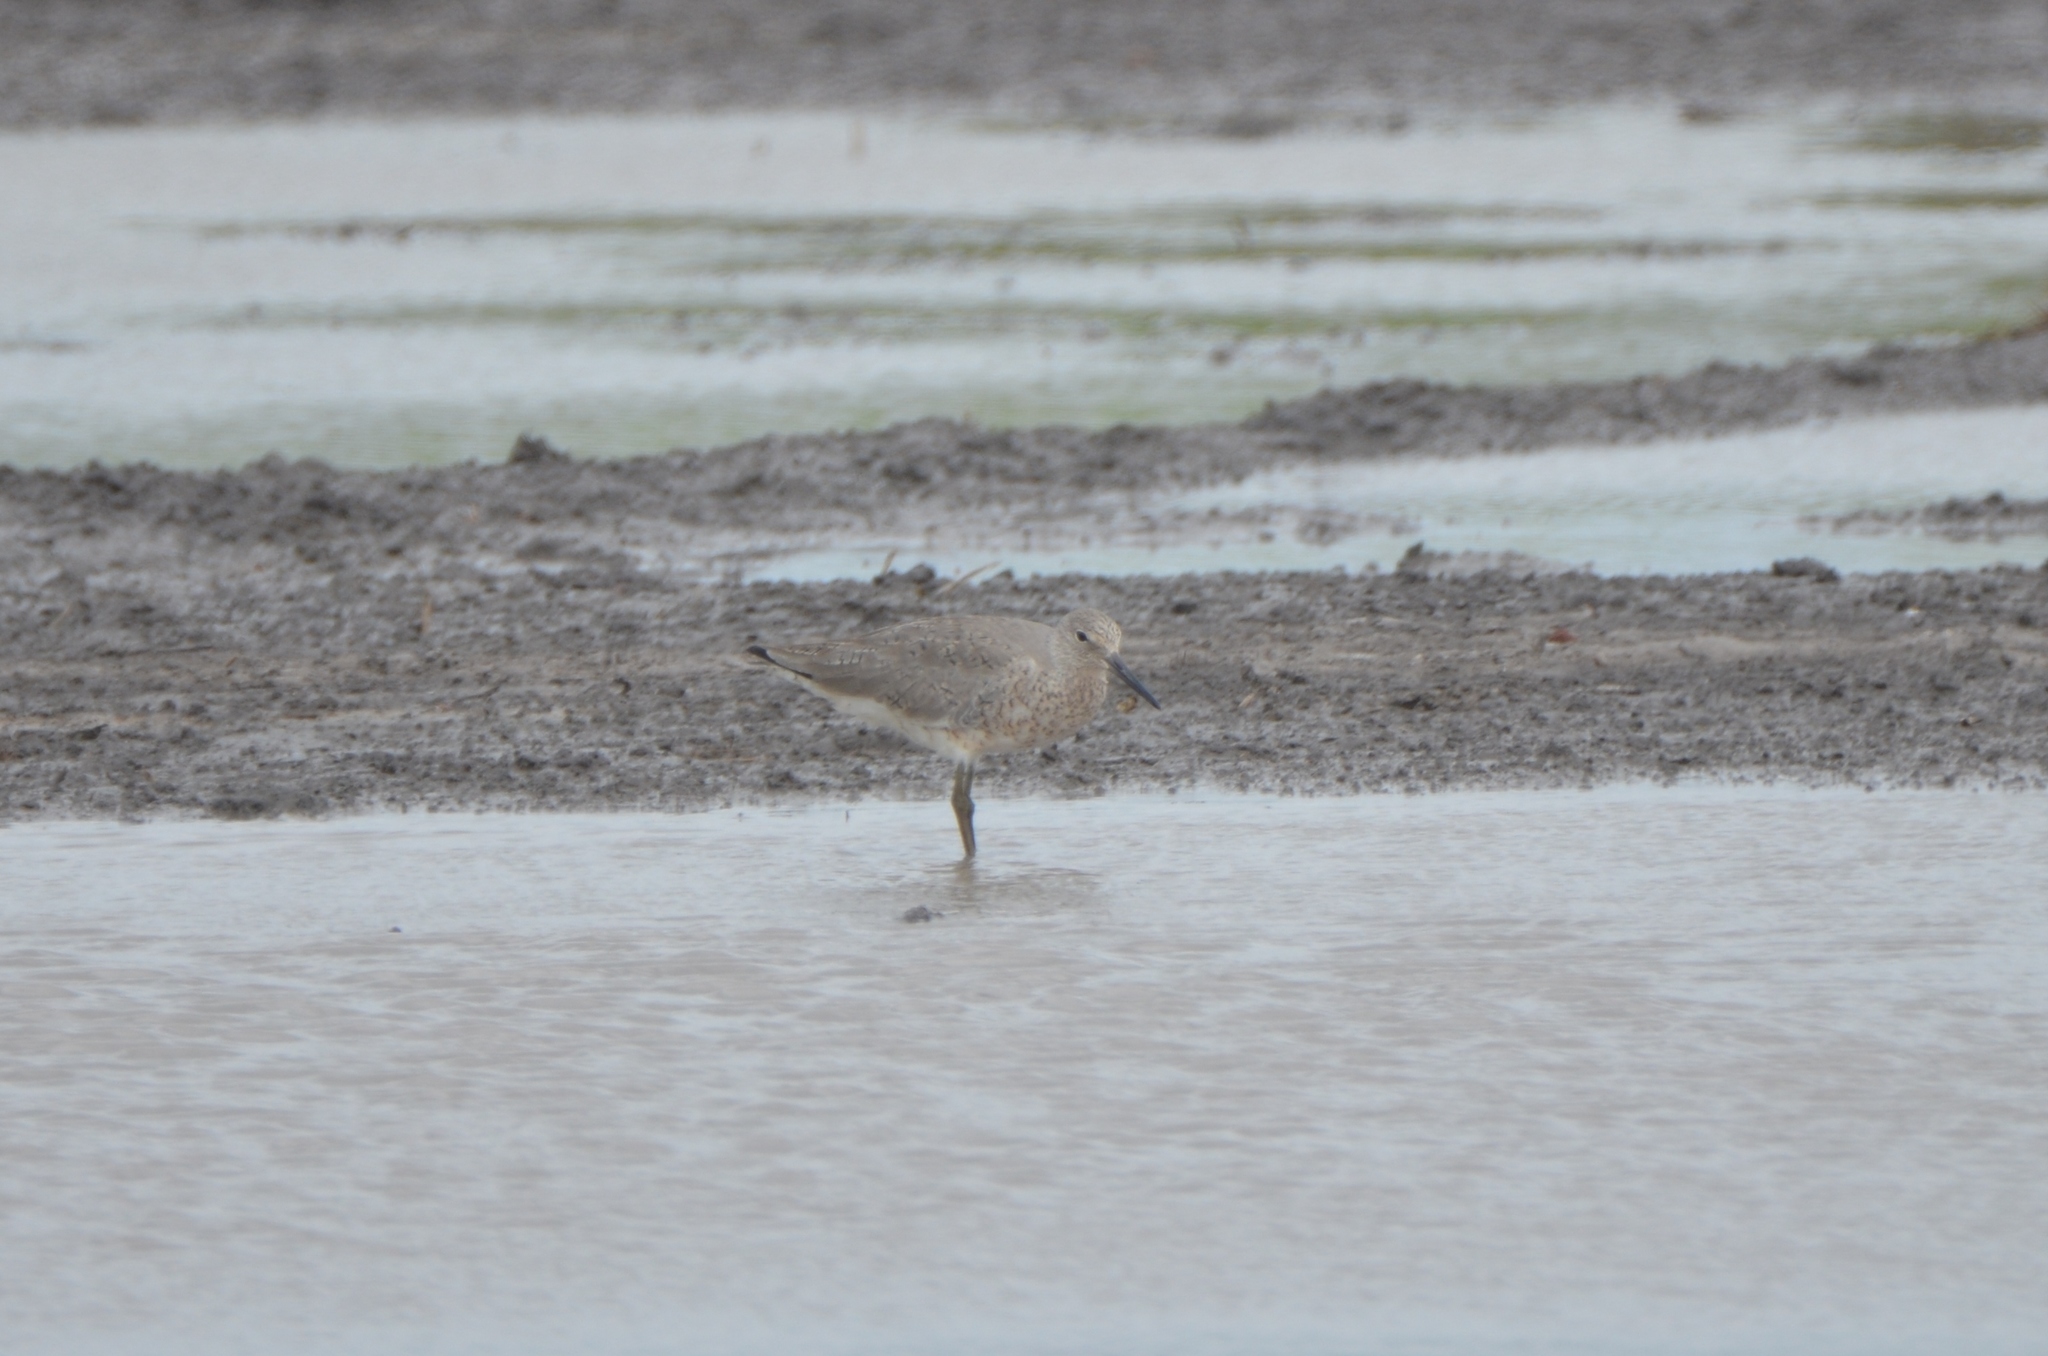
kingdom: Animalia
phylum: Chordata
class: Aves
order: Charadriiformes
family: Scolopacidae
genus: Tringa
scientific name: Tringa semipalmata
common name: Willet
